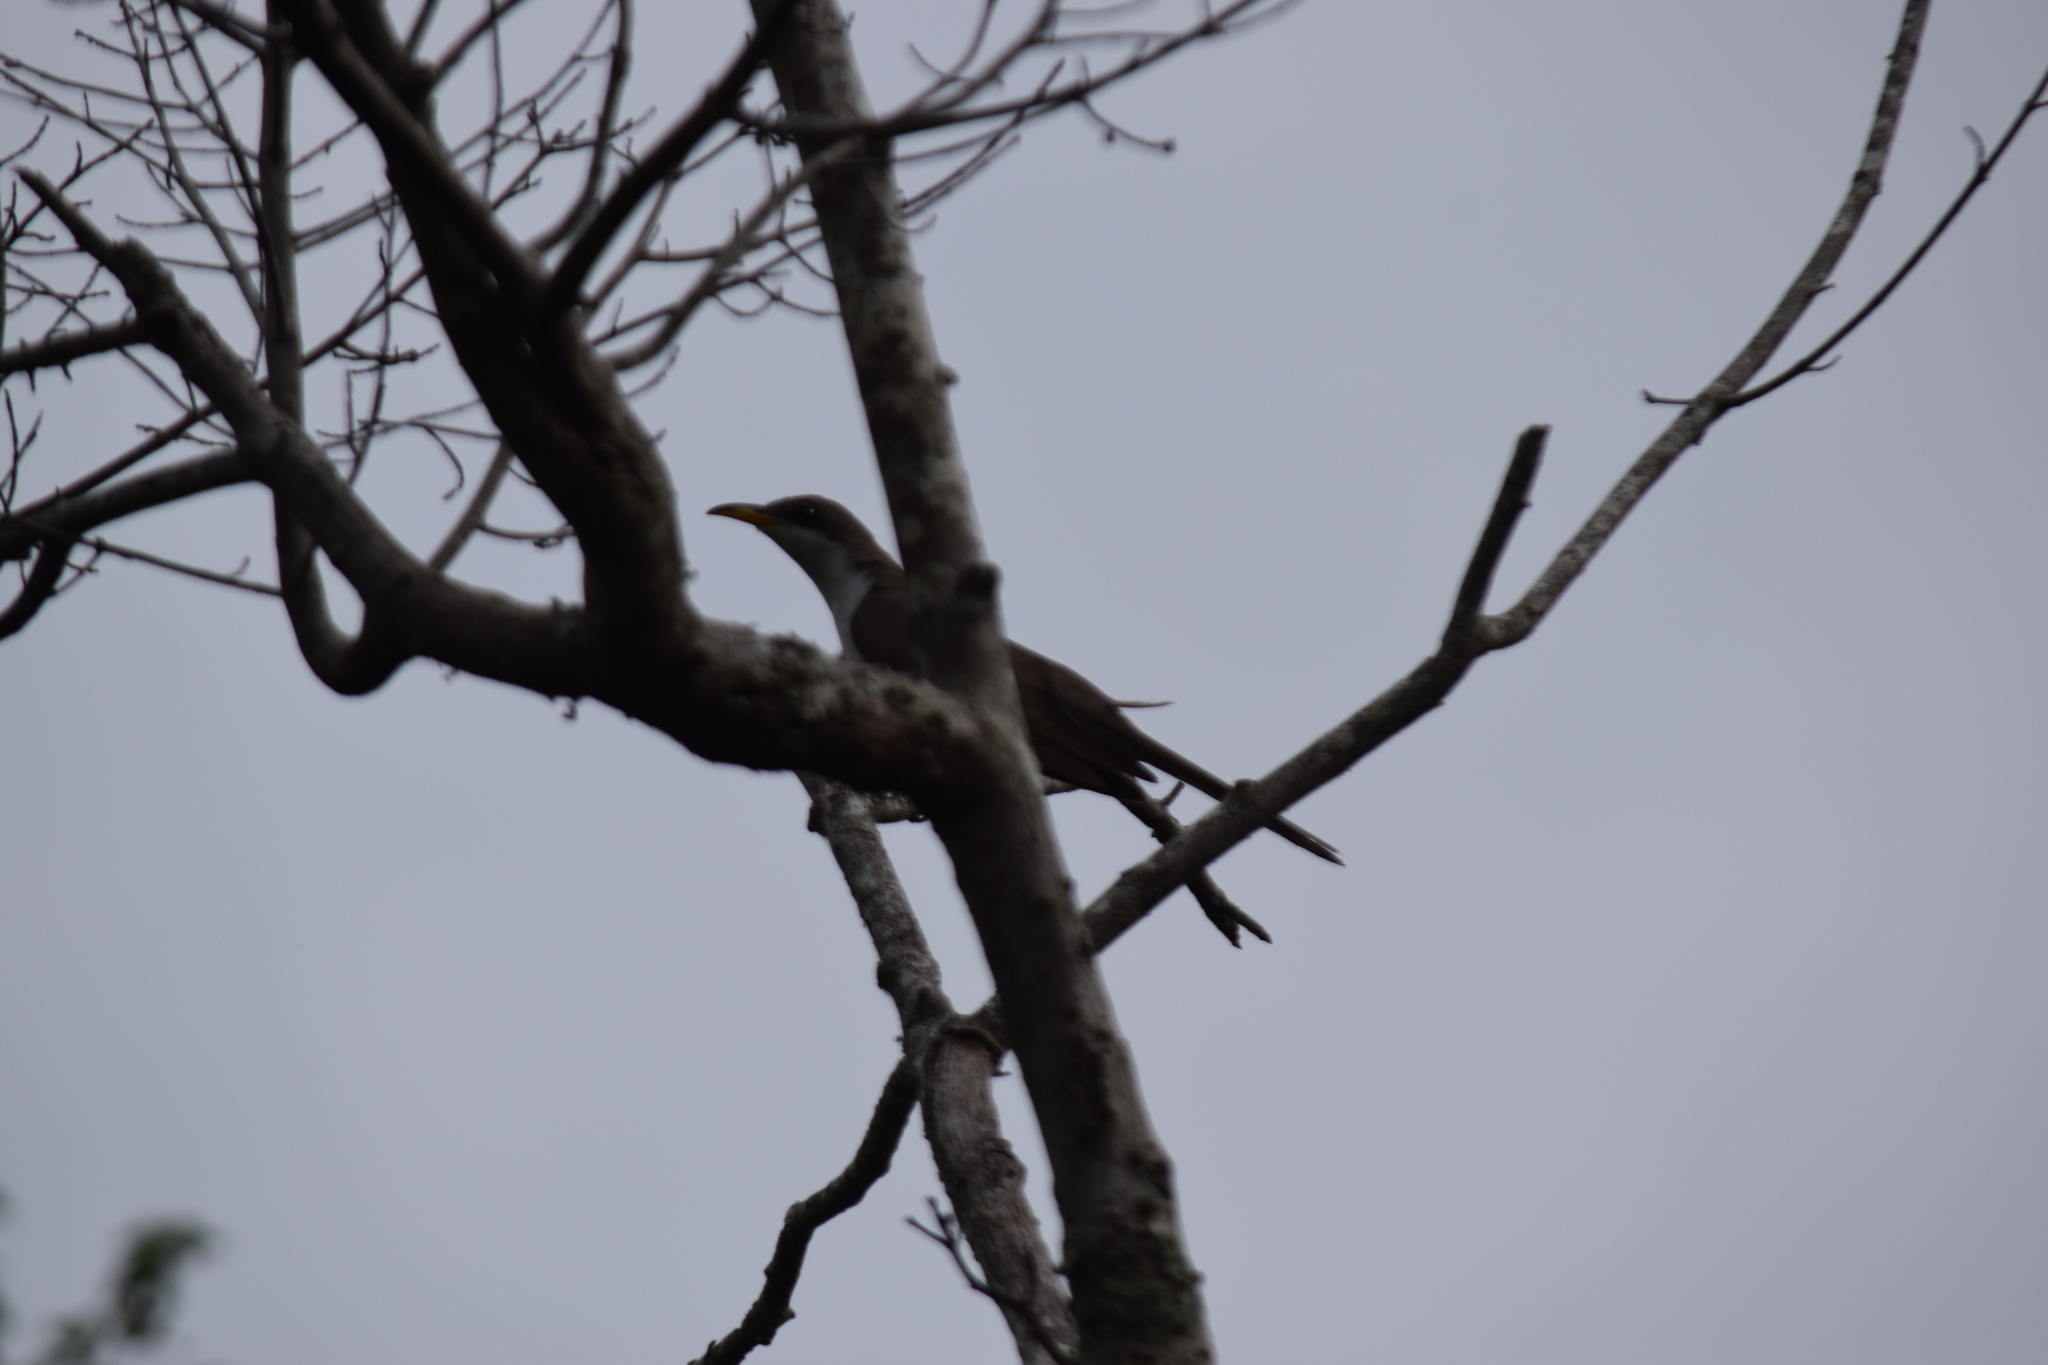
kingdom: Animalia
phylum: Chordata
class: Aves
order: Cuculiformes
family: Cuculidae
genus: Coccyzus
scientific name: Coccyzus americanus
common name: Yellow-billed cuckoo
